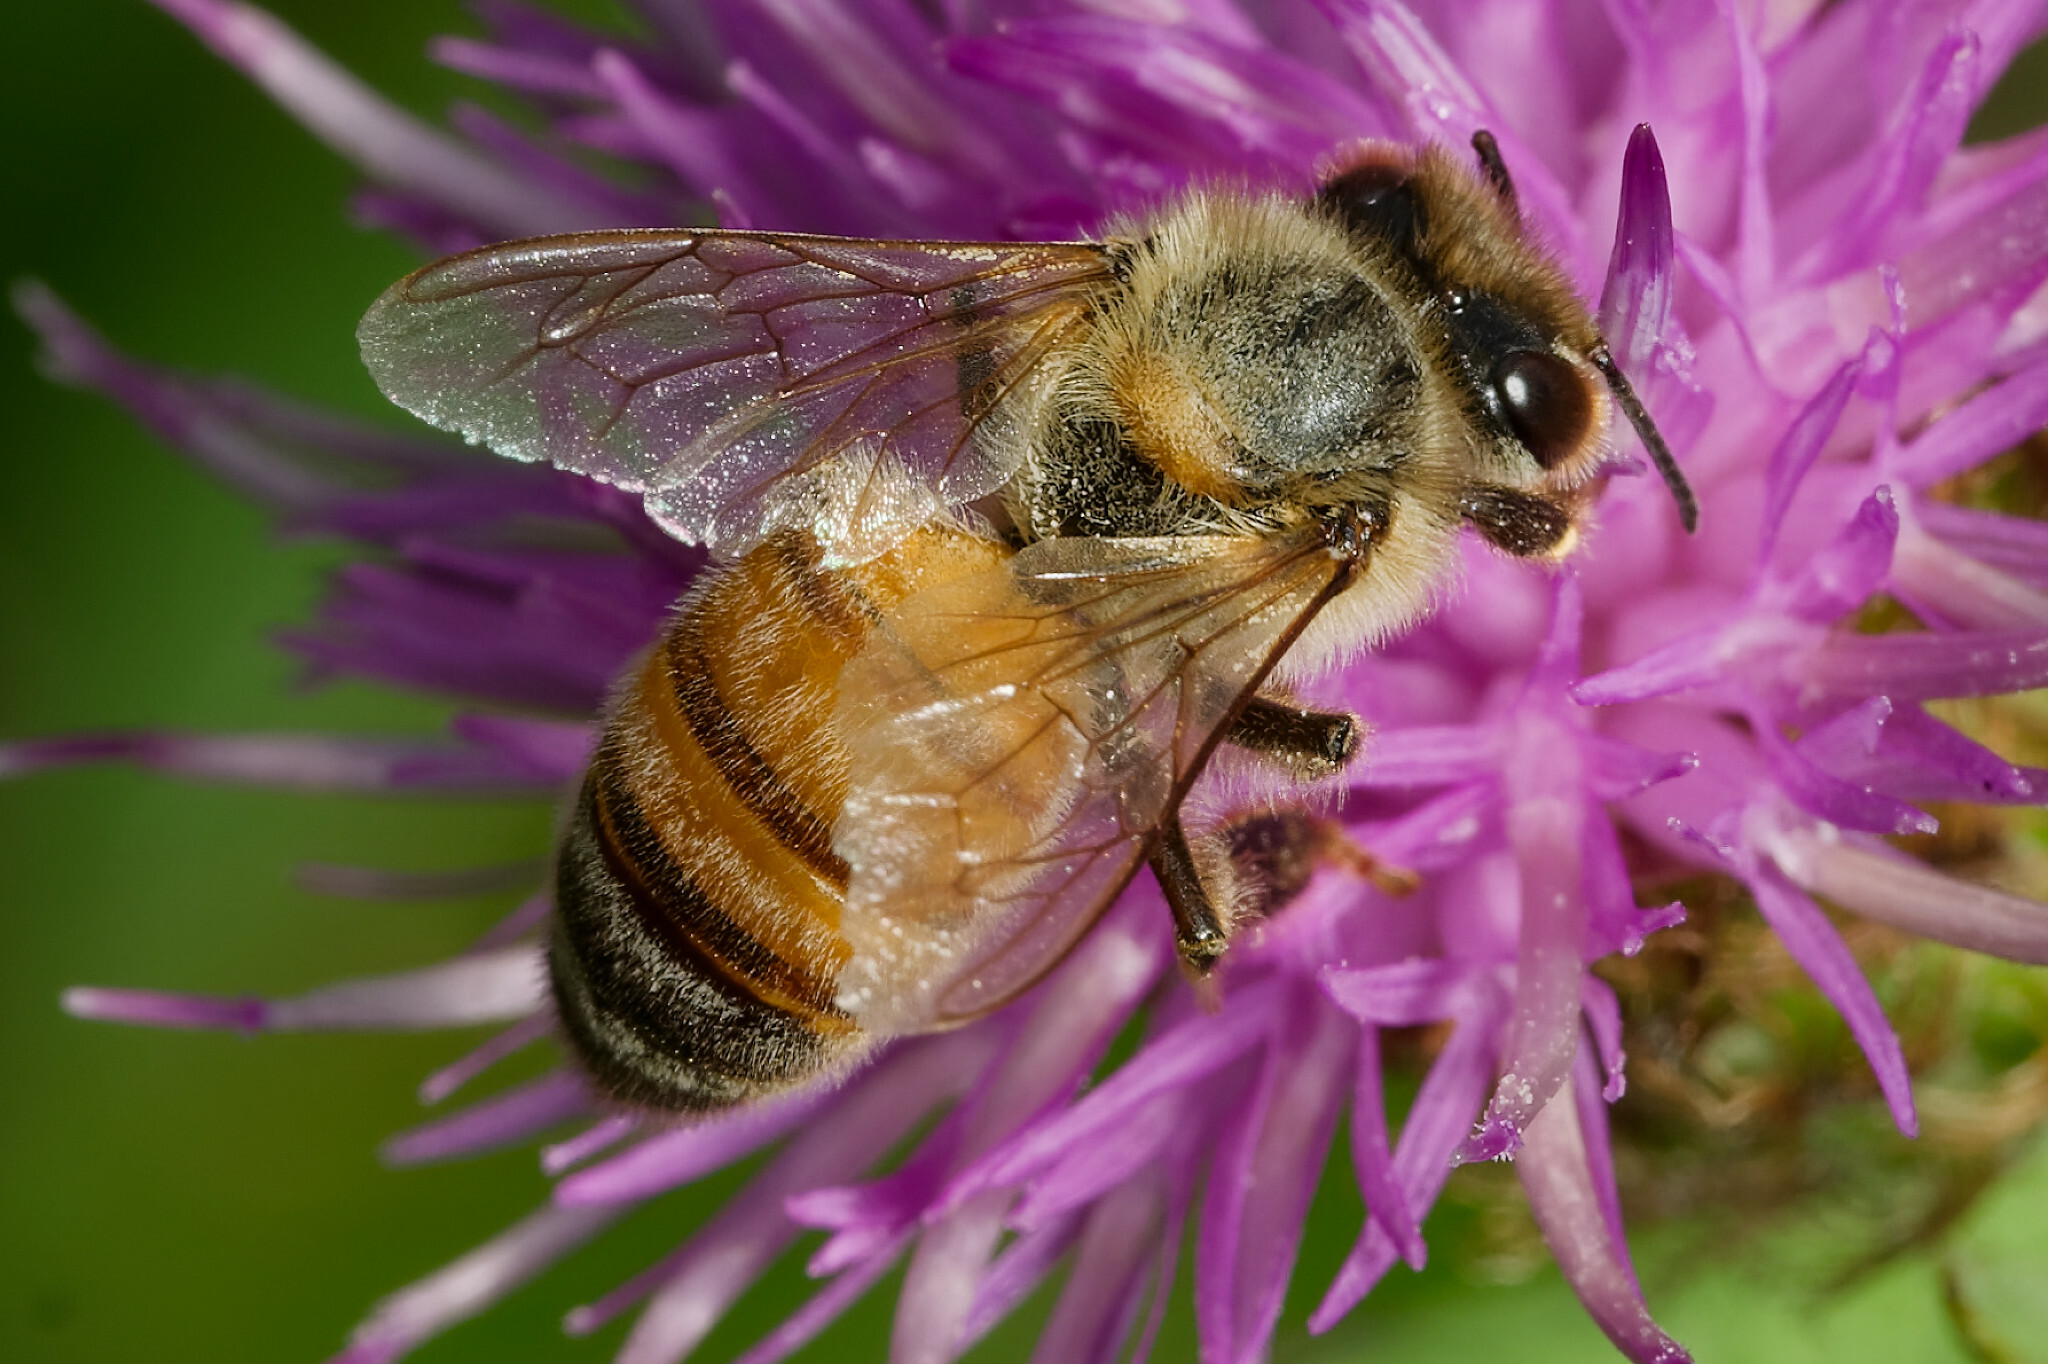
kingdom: Animalia
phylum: Arthropoda
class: Insecta
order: Hymenoptera
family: Apidae
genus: Apis
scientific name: Apis mellifera
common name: Honey bee
